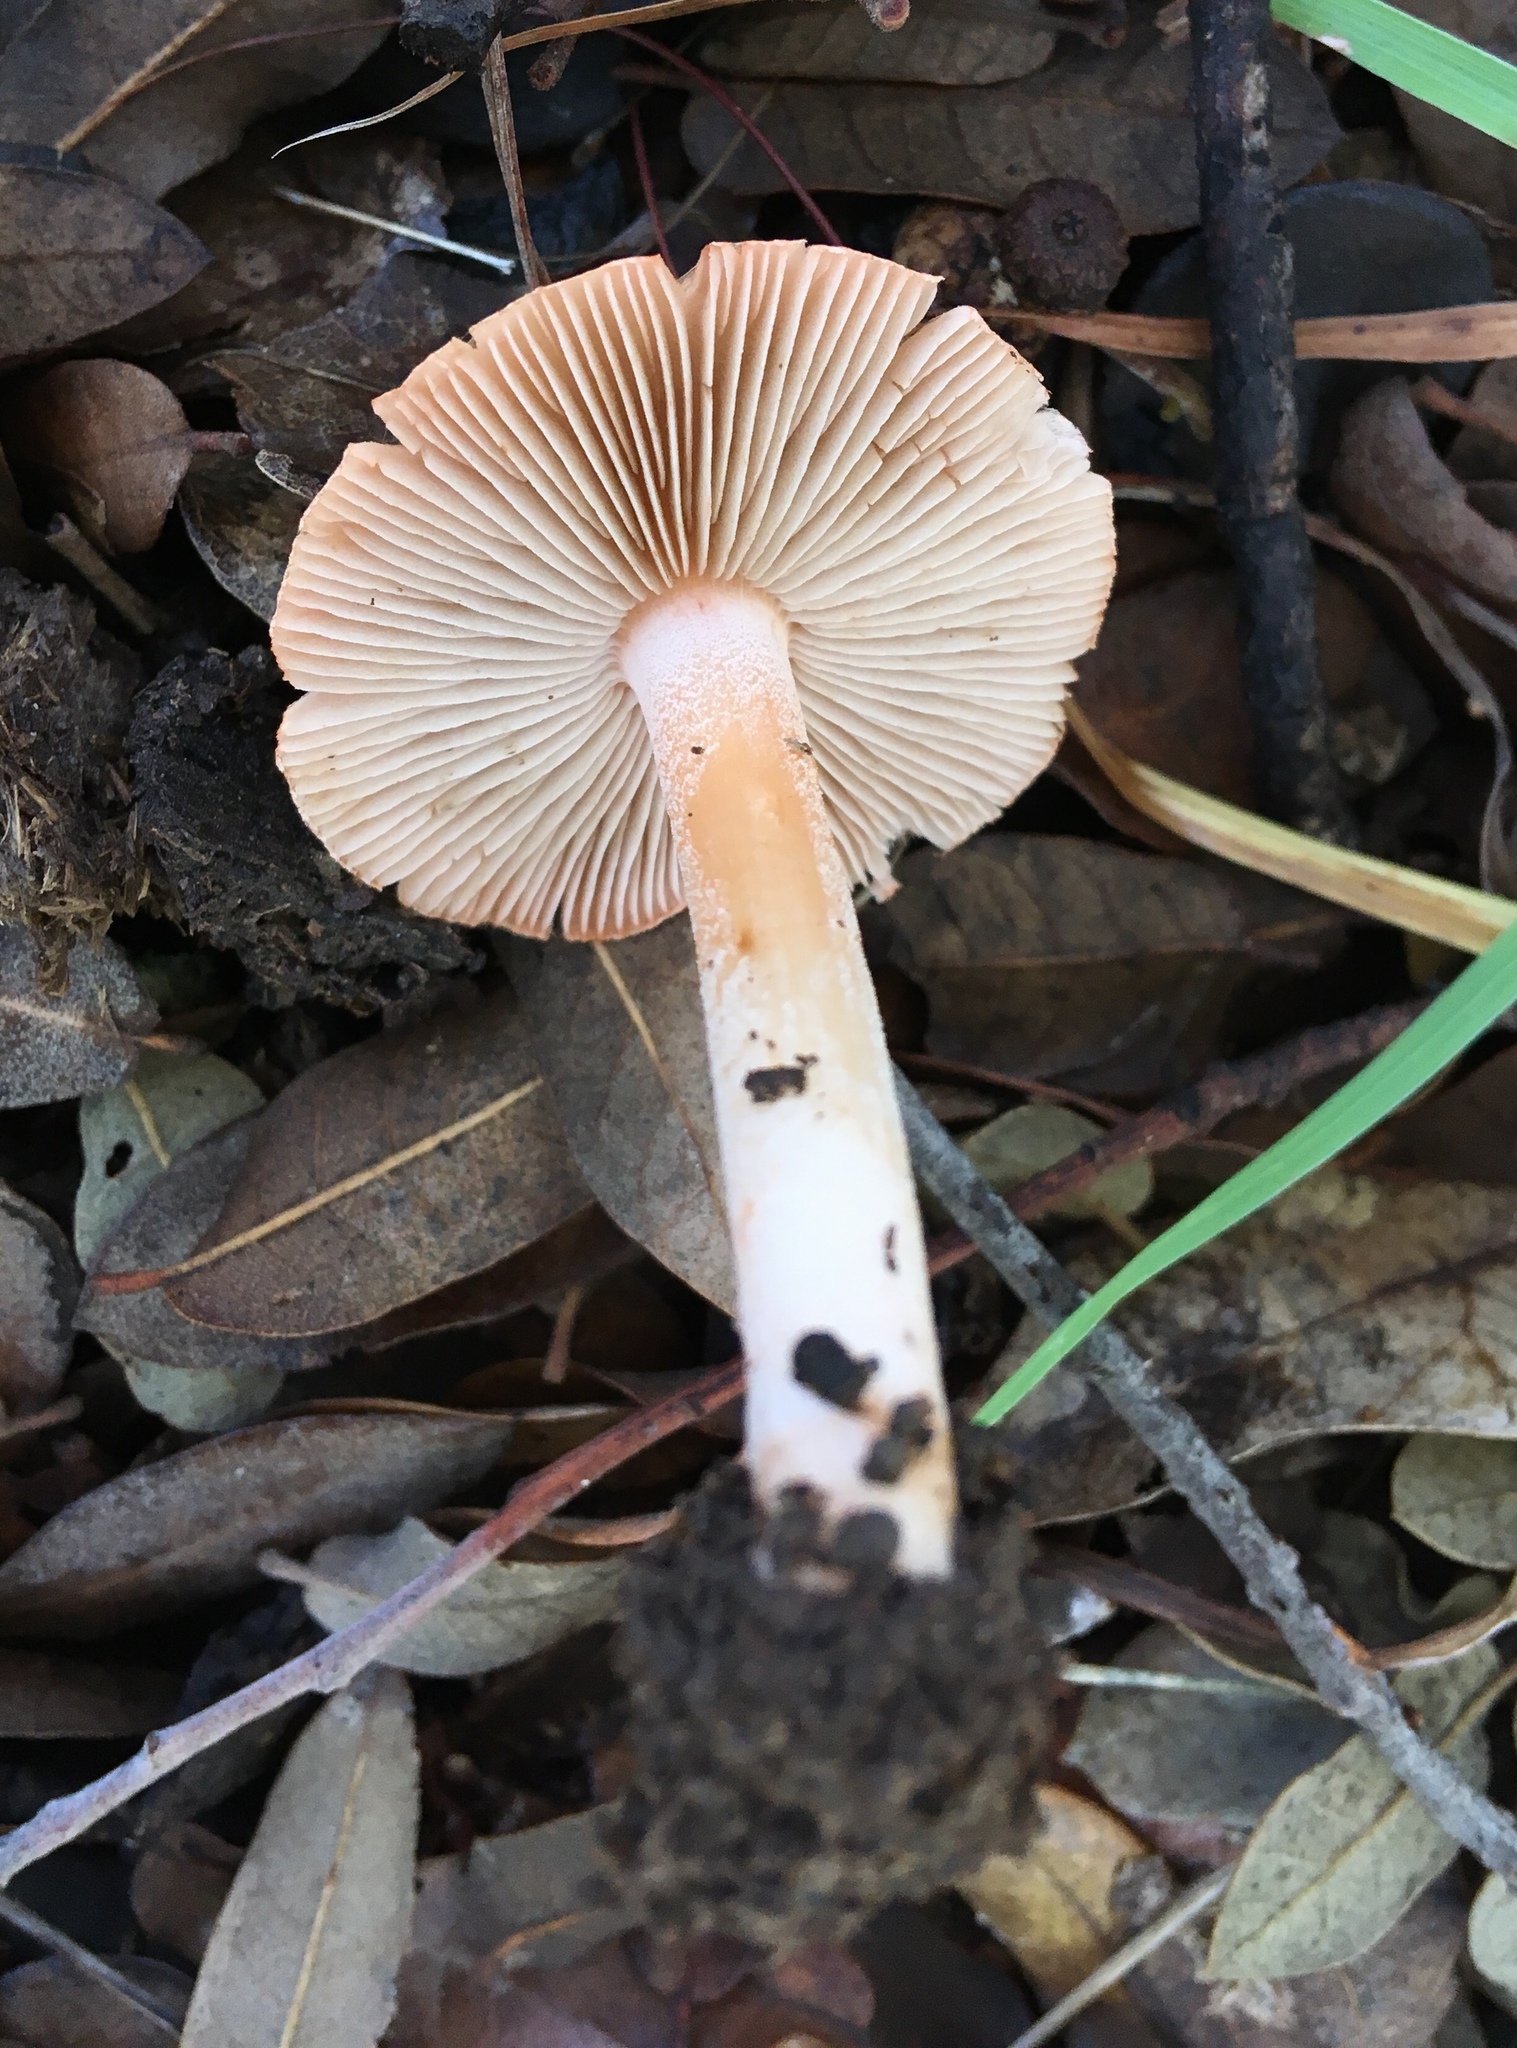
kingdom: Fungi
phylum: Basidiomycota
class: Agaricomycetes
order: Agaricales
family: Inocybaceae
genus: Inocybe
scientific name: Inocybe roseifolia
